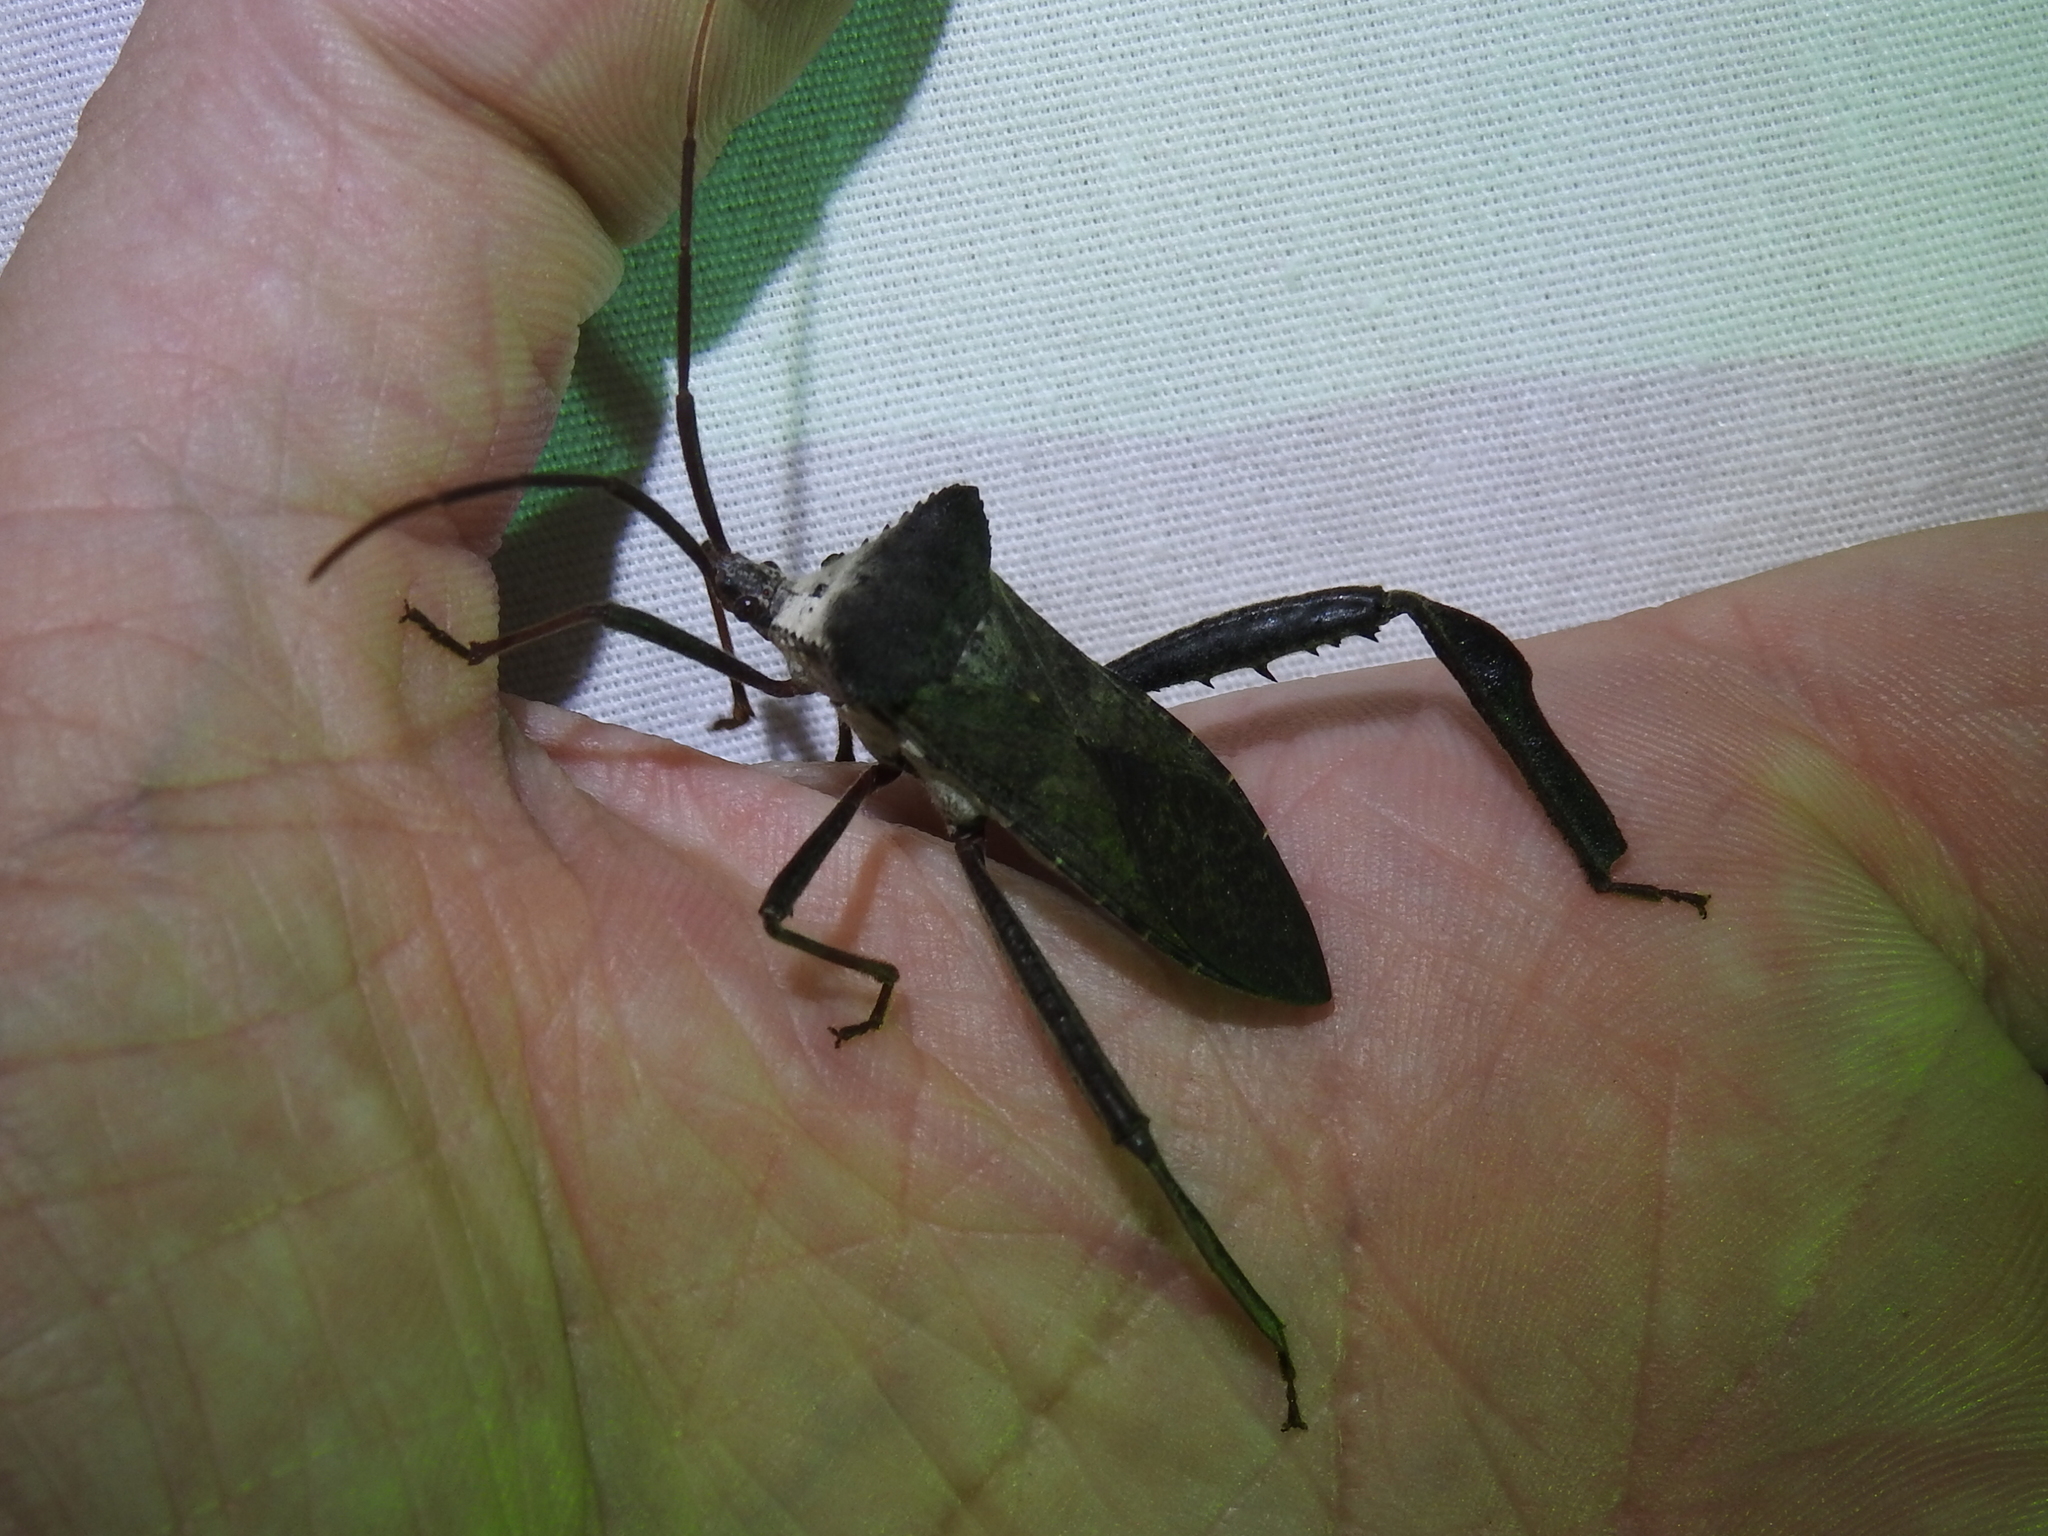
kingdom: Animalia
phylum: Arthropoda
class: Insecta
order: Hemiptera
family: Coreidae
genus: Acanthocephala
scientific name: Acanthocephala declivis
